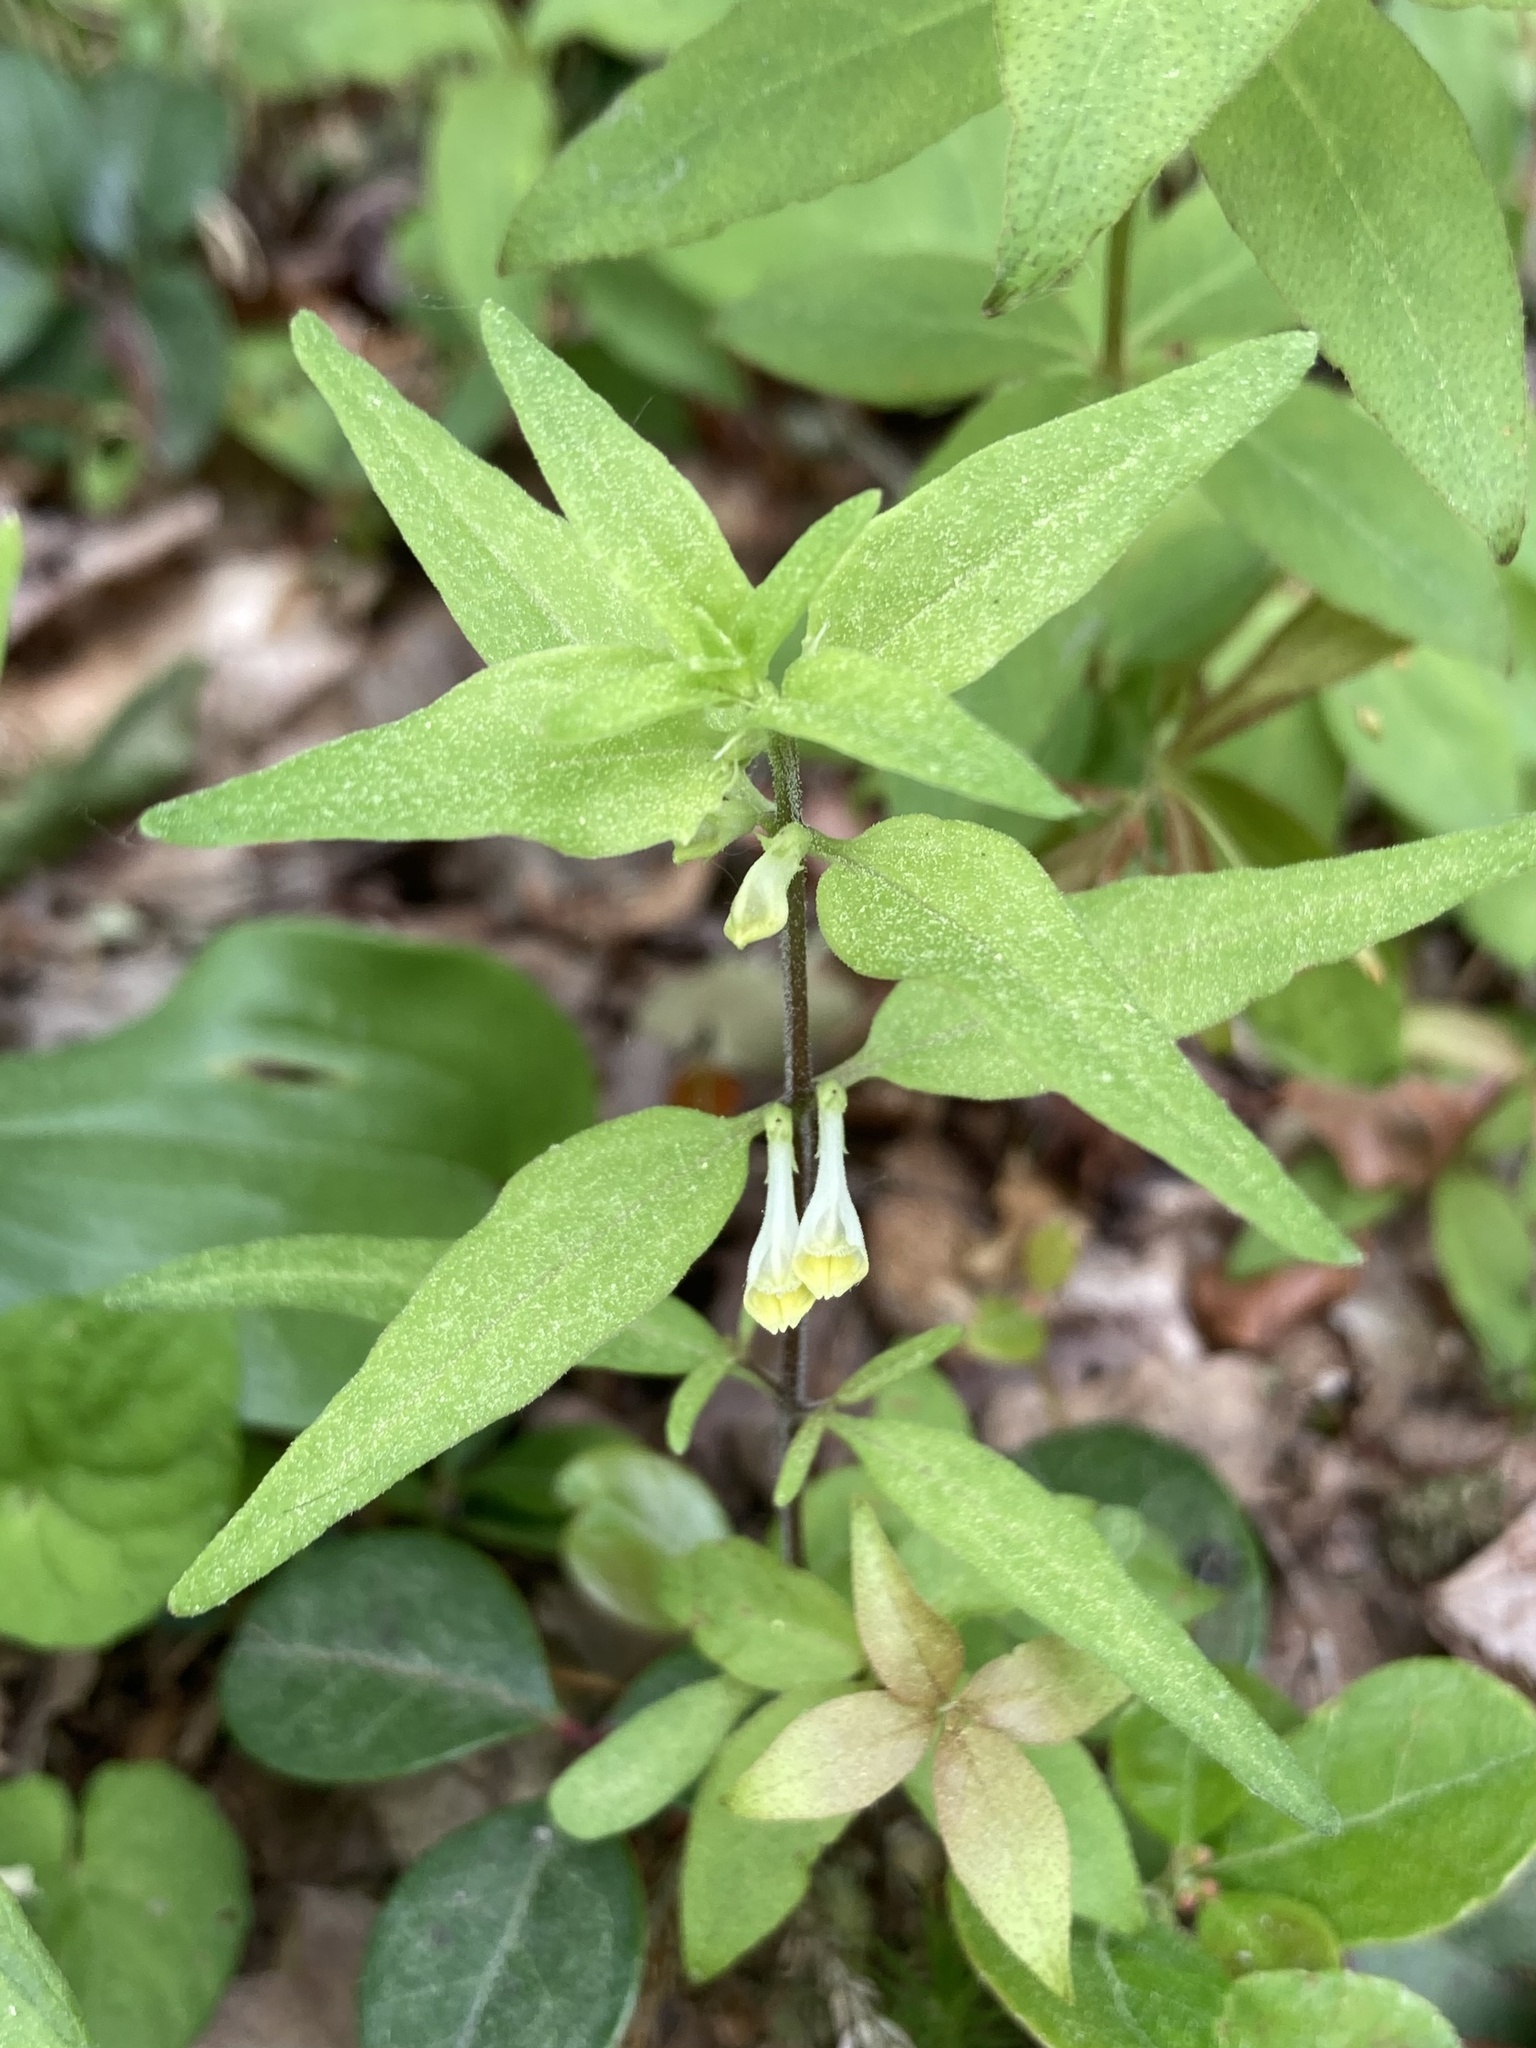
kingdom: Plantae
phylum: Tracheophyta
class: Magnoliopsida
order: Lamiales
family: Orobanchaceae
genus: Melampyrum
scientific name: Melampyrum lineare
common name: American cow-wheat
